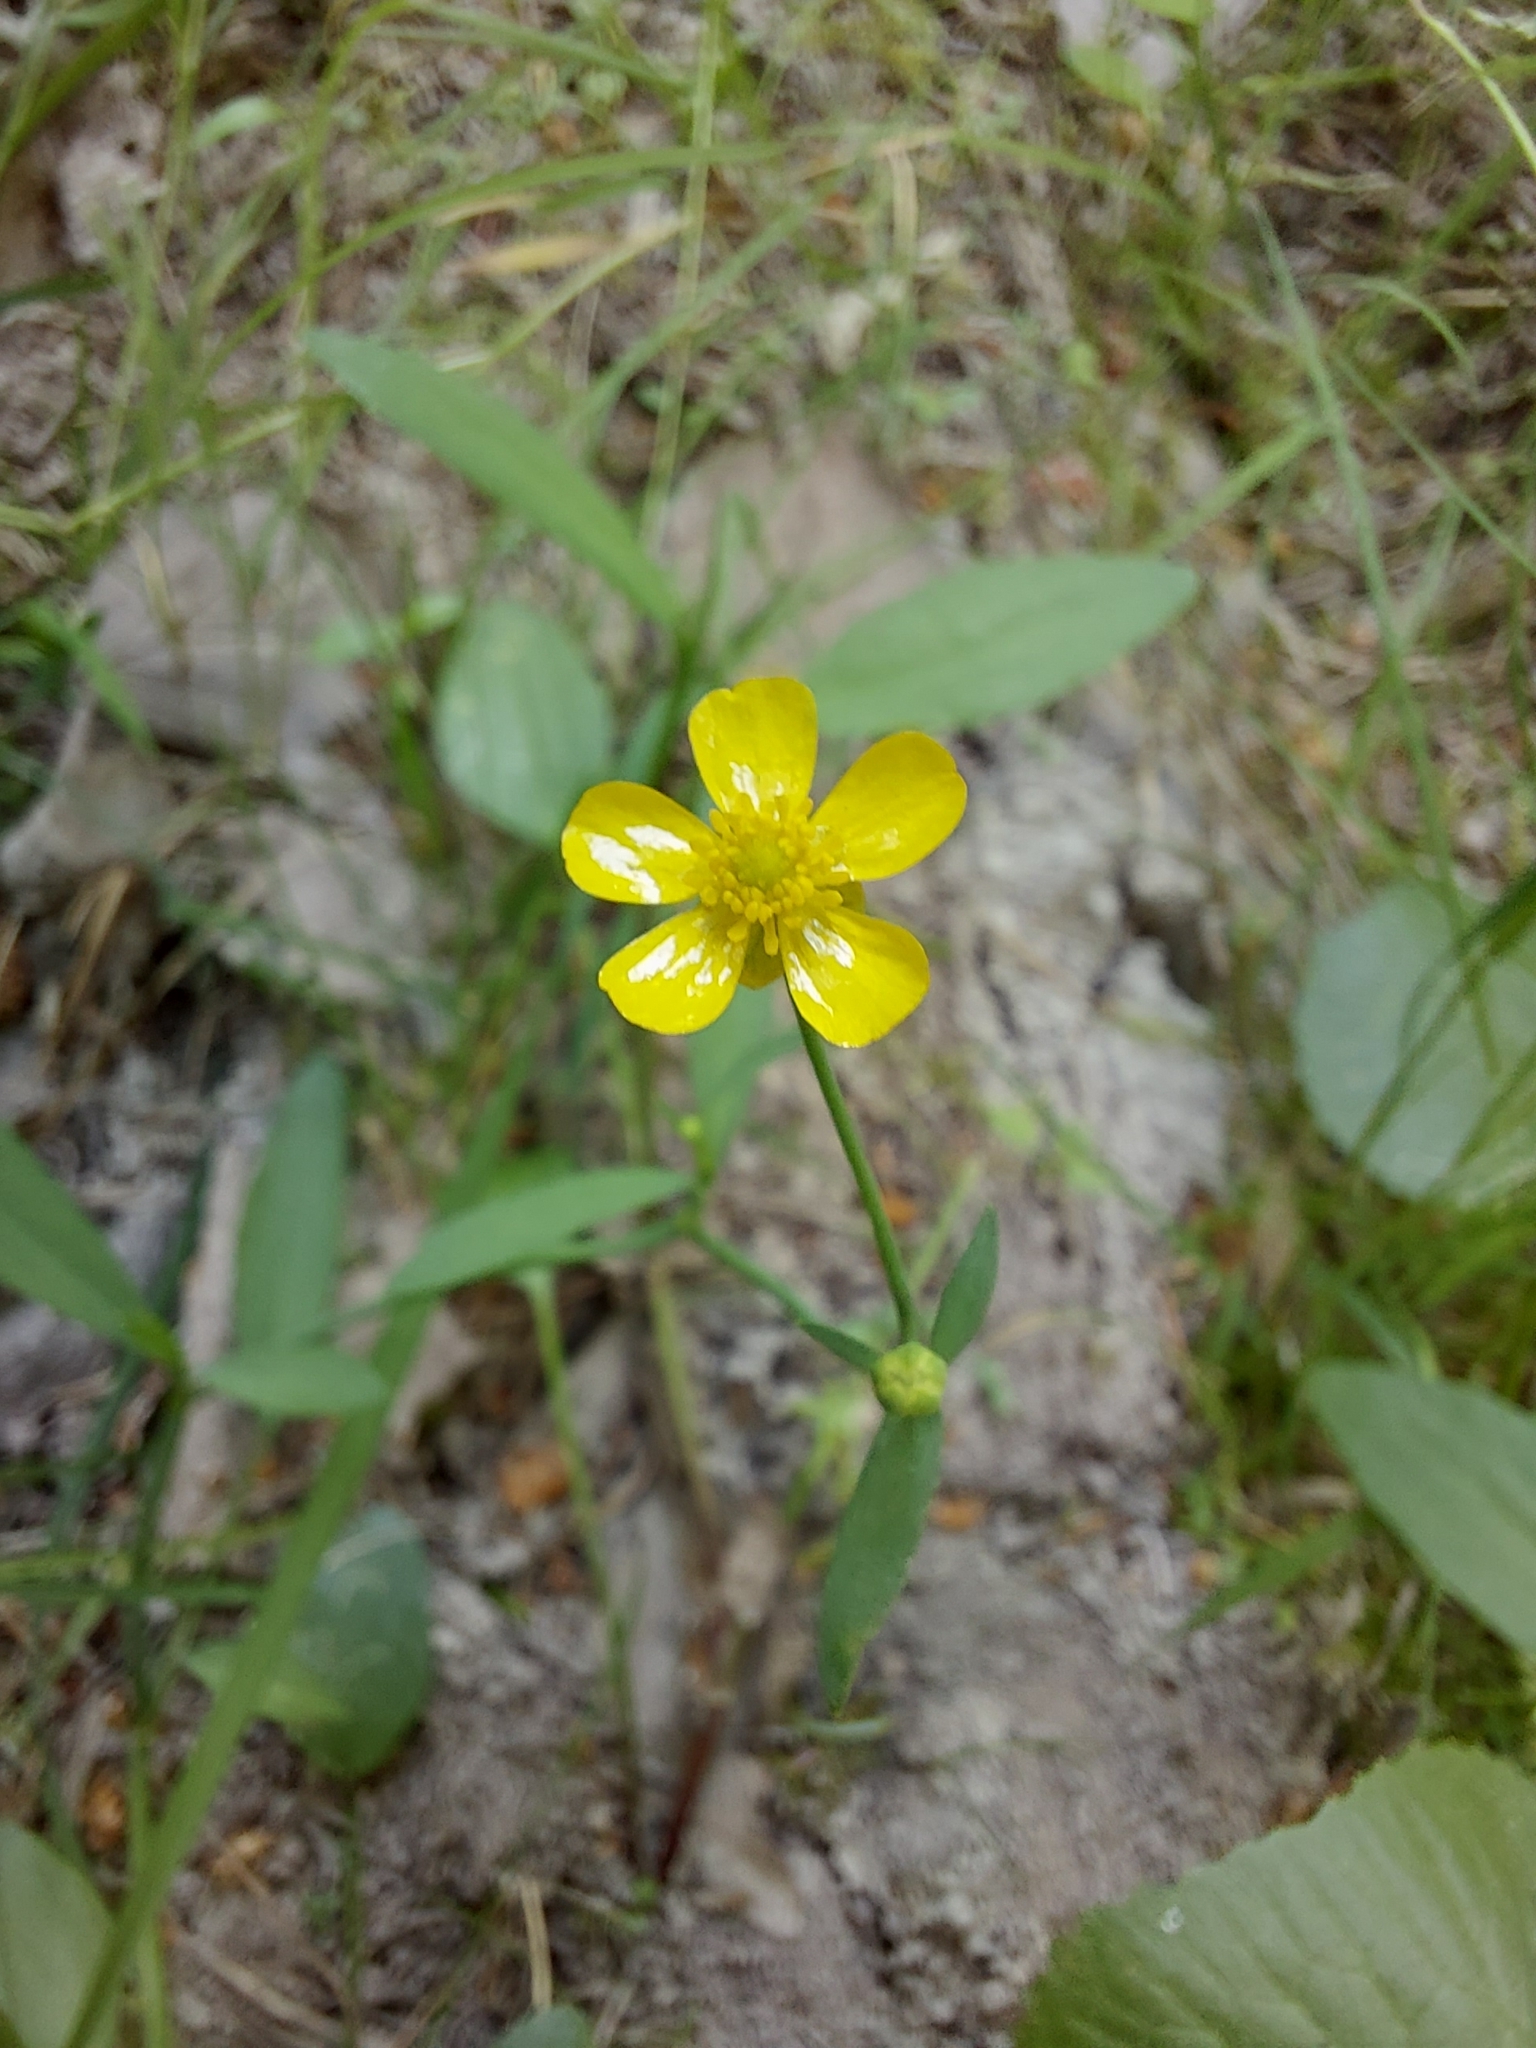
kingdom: Plantae
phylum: Tracheophyta
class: Magnoliopsida
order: Ranunculales
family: Ranunculaceae
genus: Ranunculus
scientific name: Ranunculus flammula
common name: Lesser spearwort
